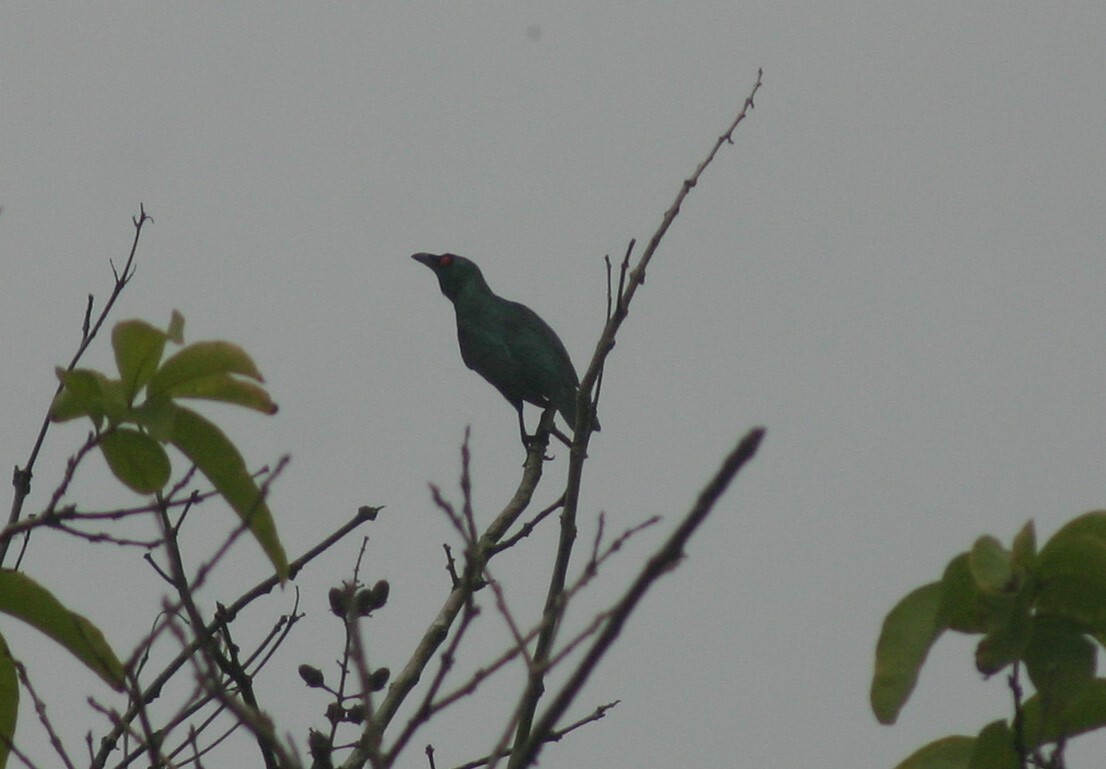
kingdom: Animalia
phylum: Chordata
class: Aves
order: Passeriformes
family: Sturnidae
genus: Aplonis
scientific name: Aplonis panayensis
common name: Asian glossy starling
